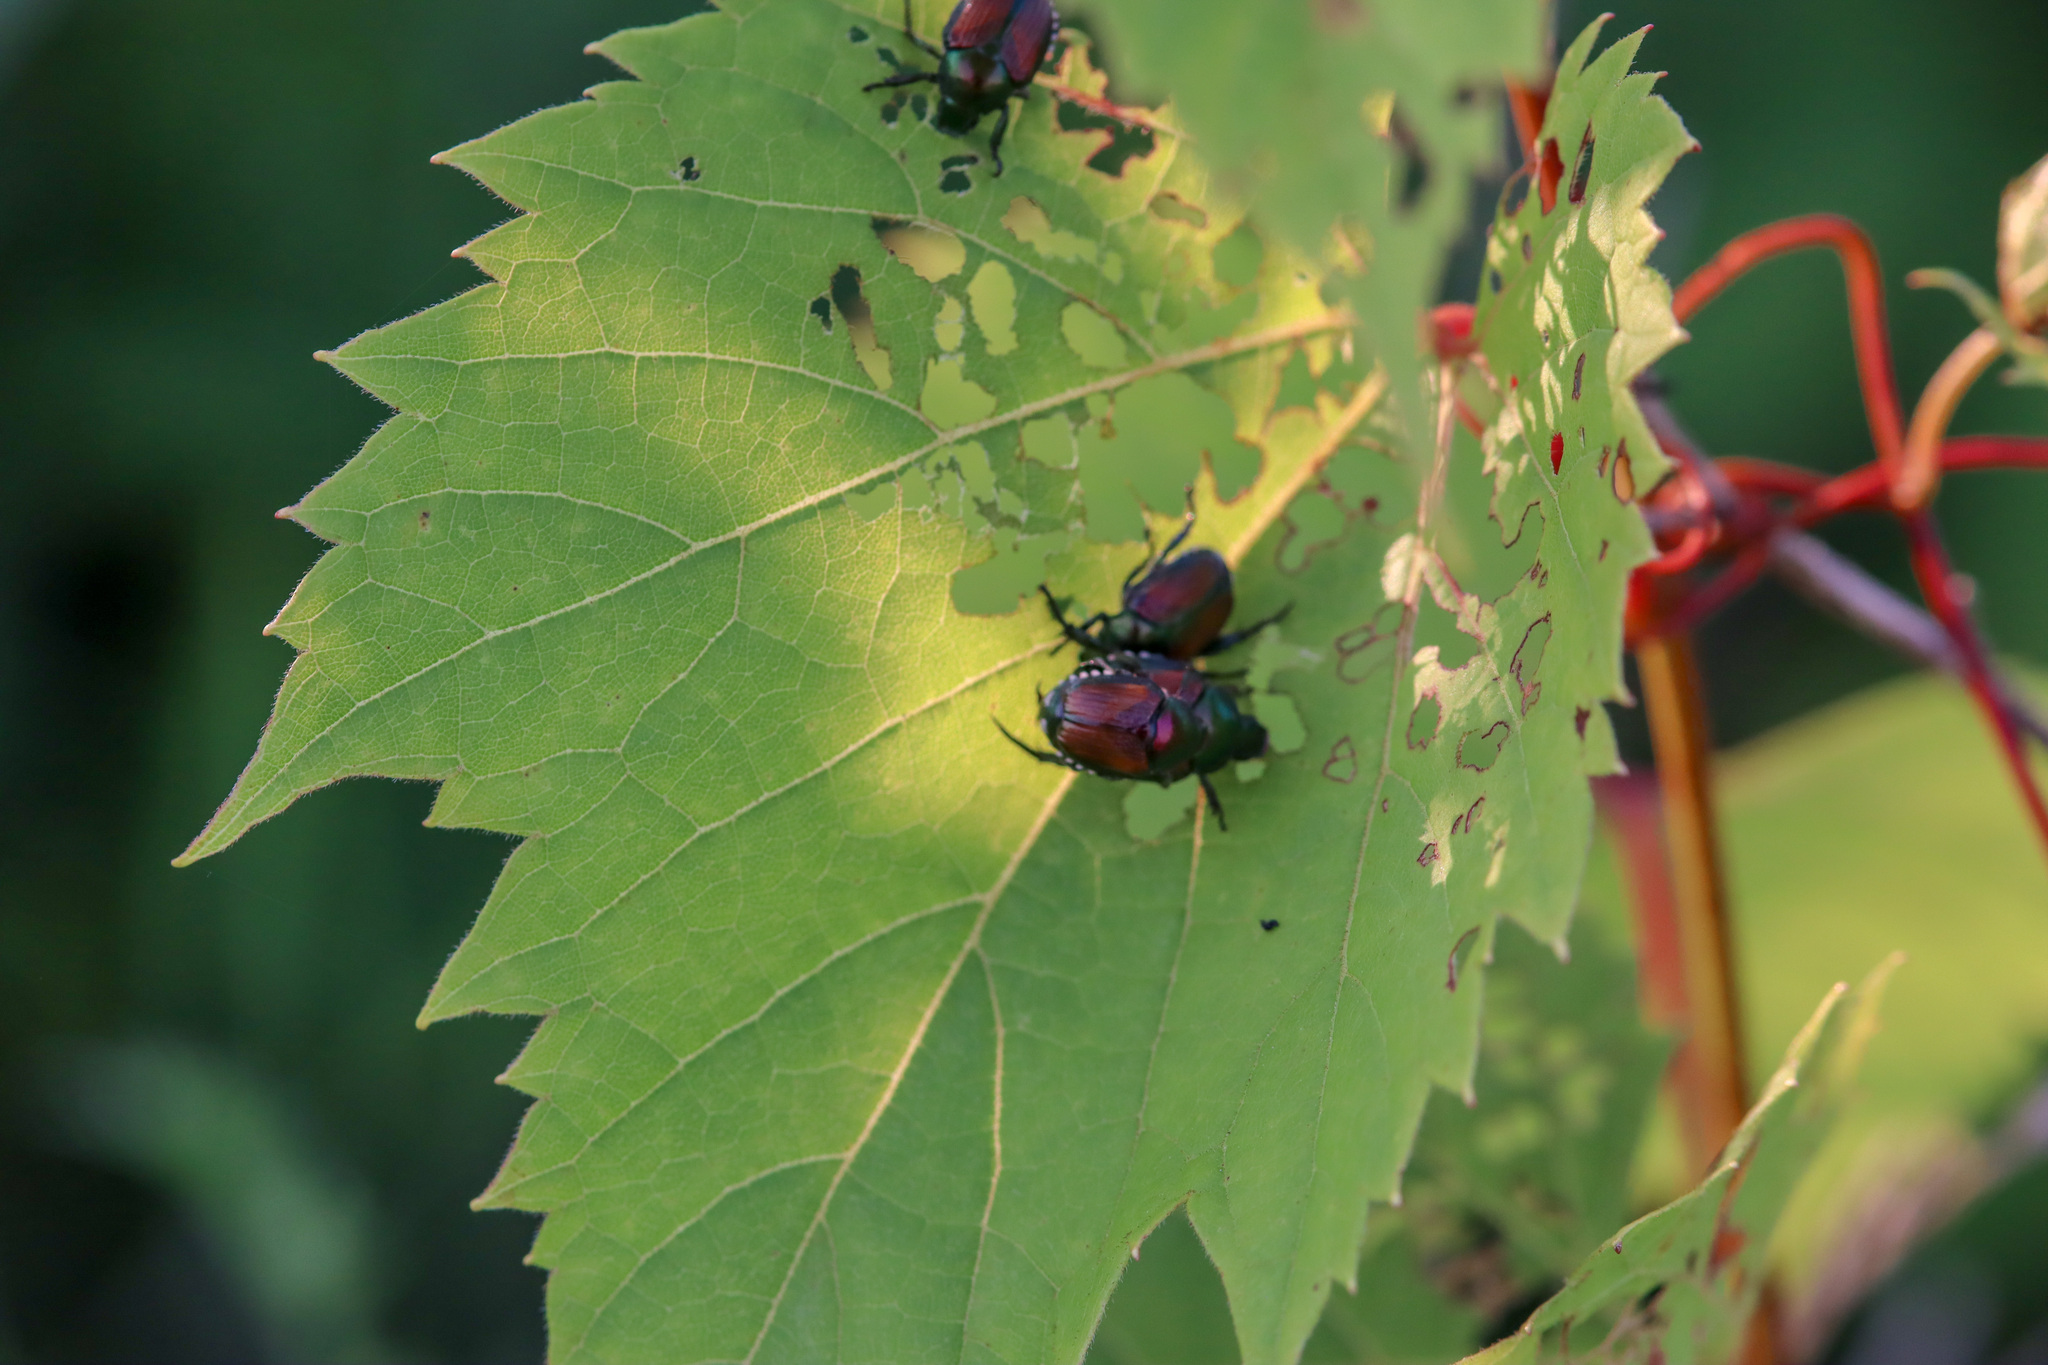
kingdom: Animalia
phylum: Arthropoda
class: Insecta
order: Coleoptera
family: Scarabaeidae
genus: Popillia
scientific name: Popillia japonica
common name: Japanese beetle
